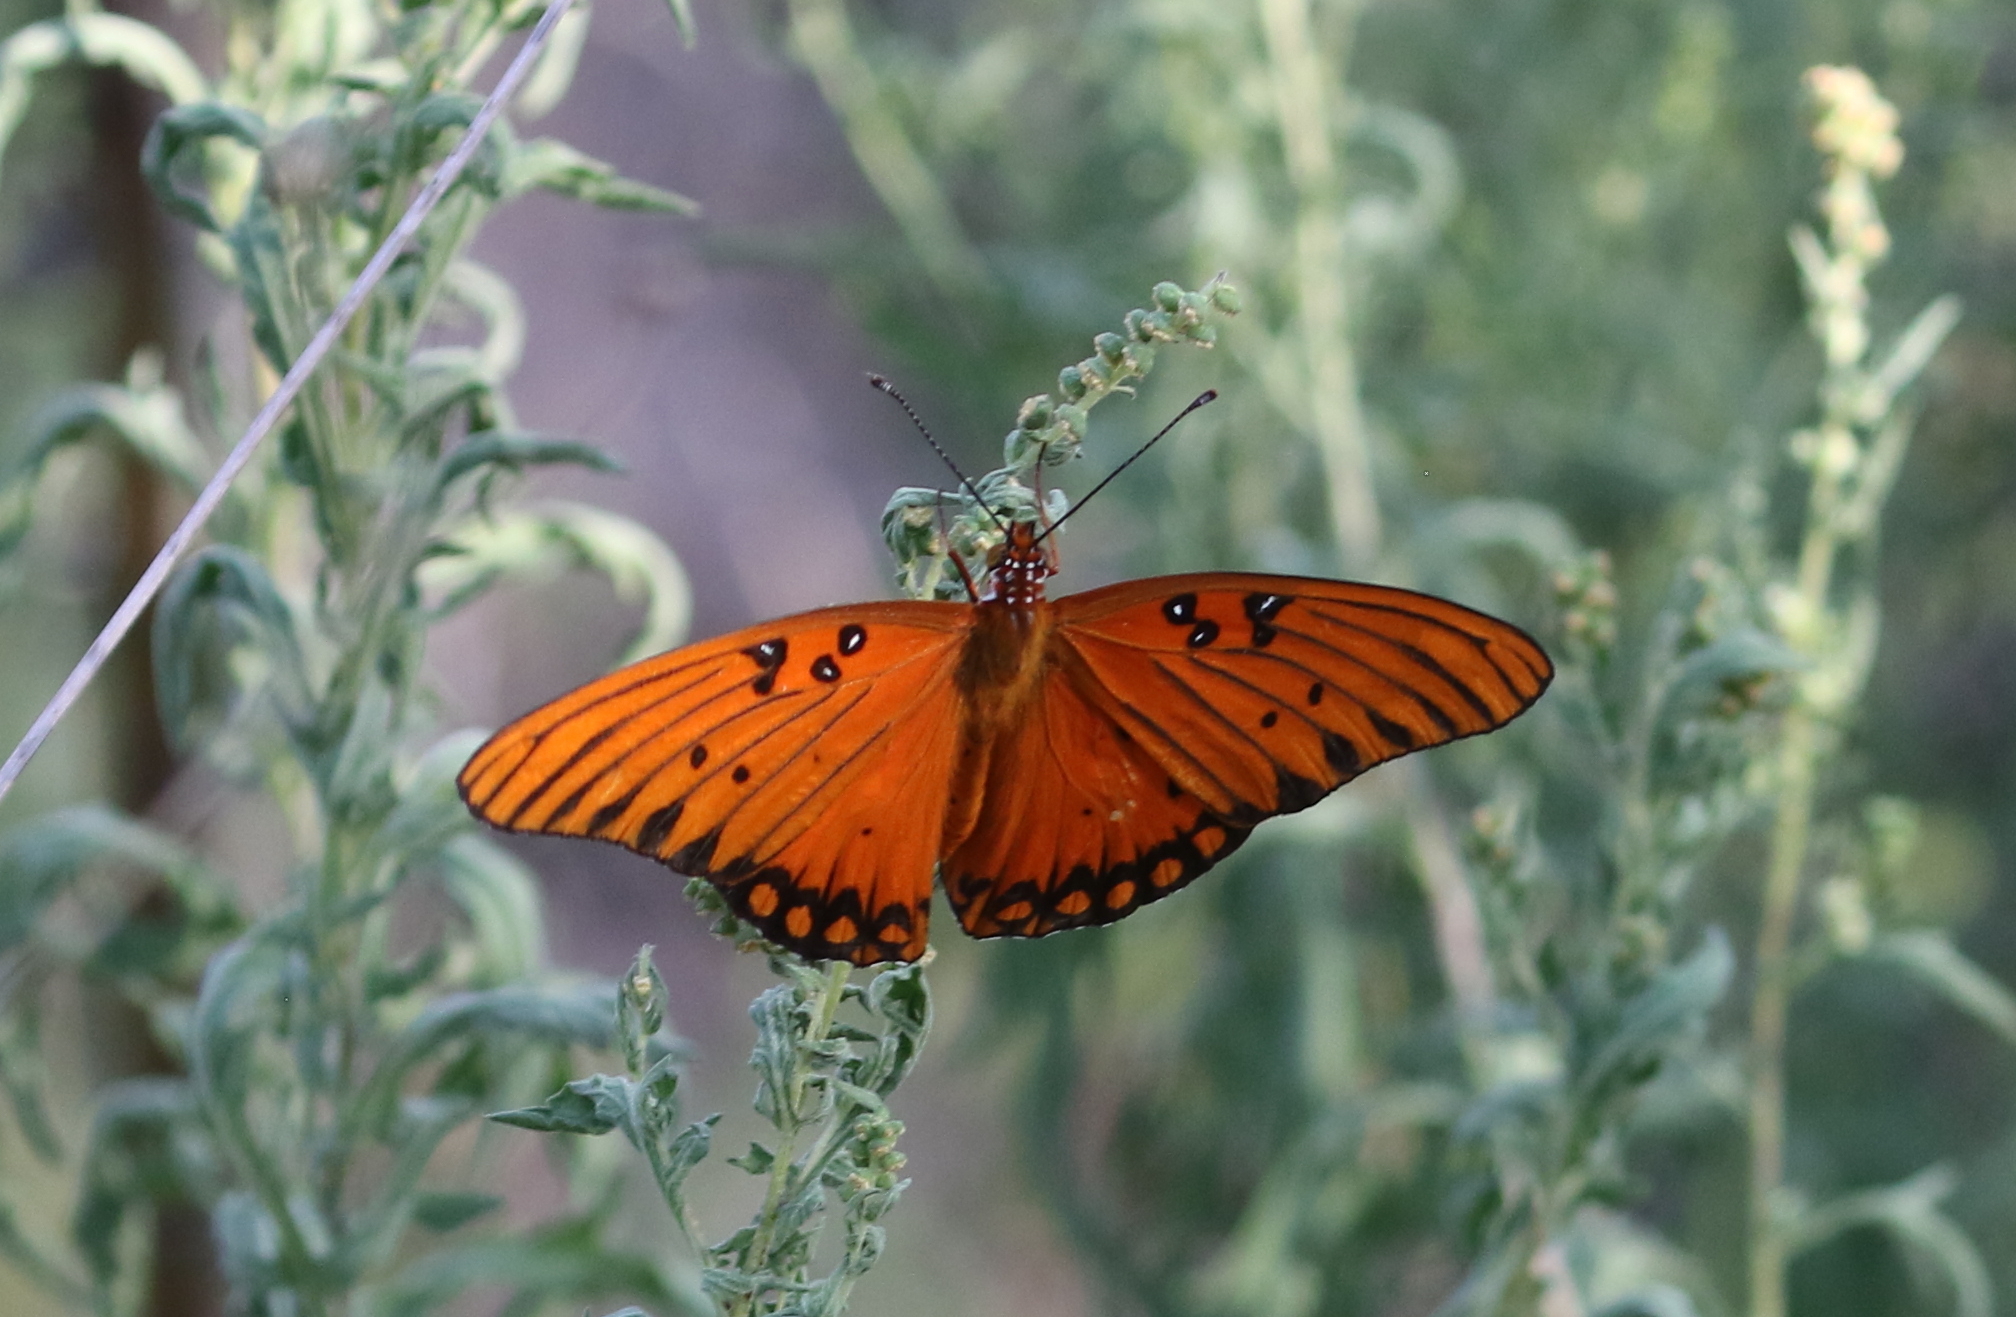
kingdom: Animalia
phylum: Arthropoda
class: Insecta
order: Lepidoptera
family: Nymphalidae
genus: Dione
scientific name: Dione vanillae
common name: Gulf fritillary
